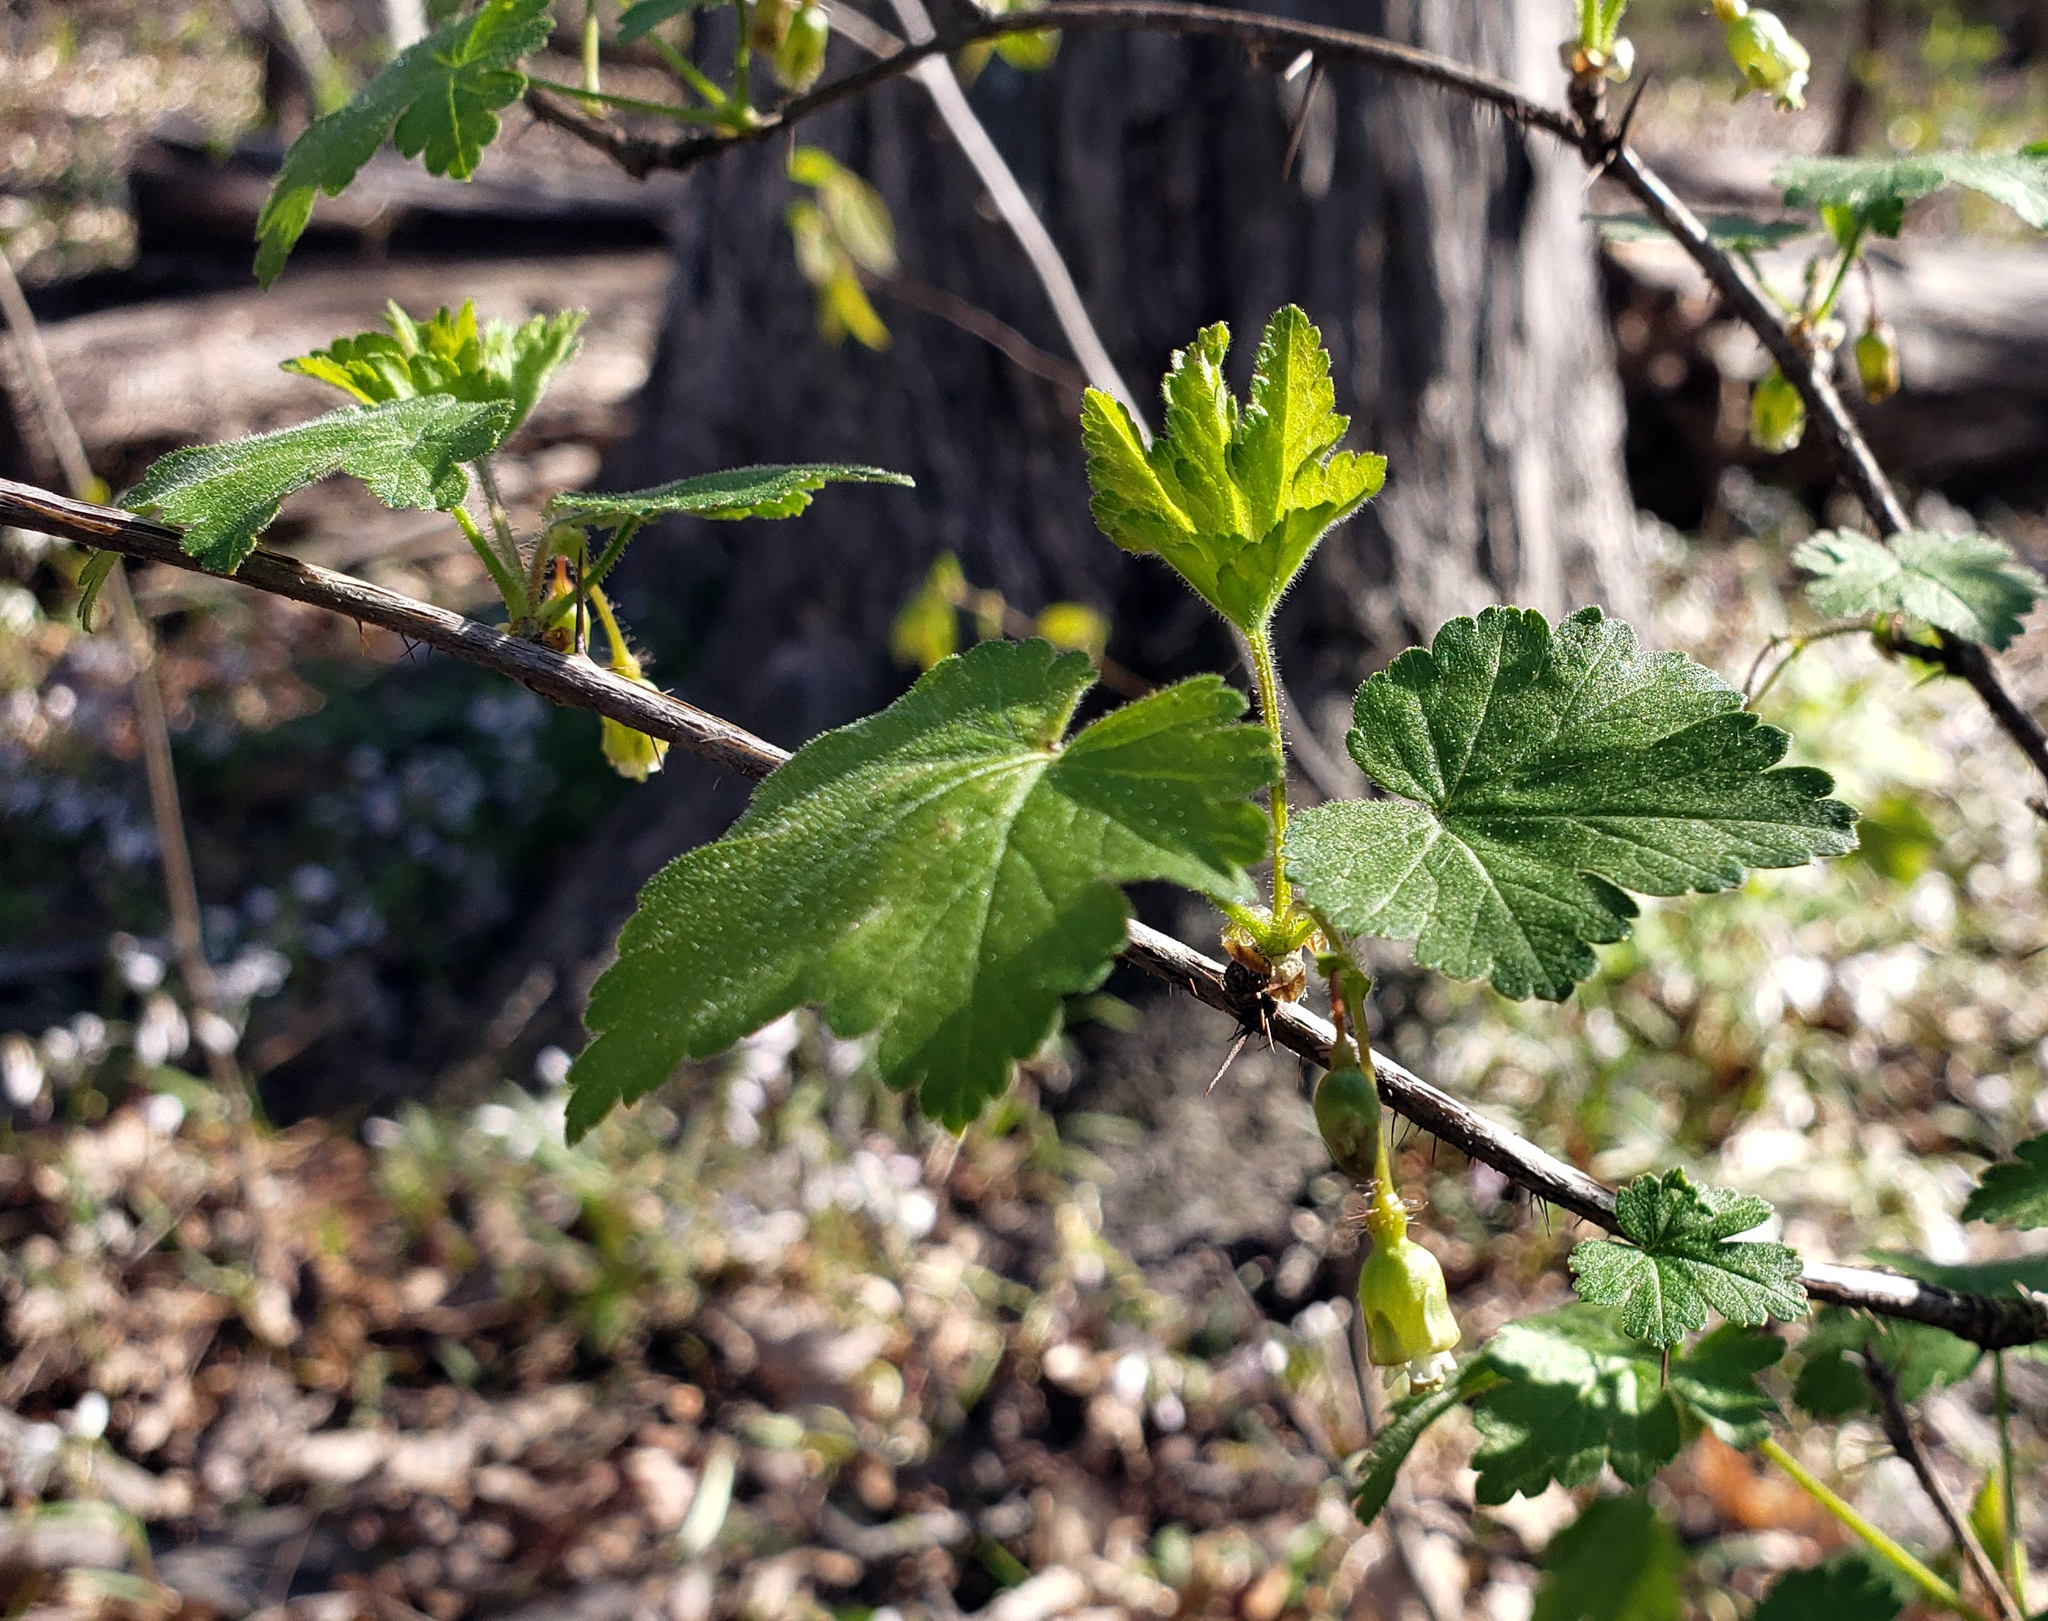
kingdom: Plantae
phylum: Tracheophyta
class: Magnoliopsida
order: Saxifragales
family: Grossulariaceae
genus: Ribes
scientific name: Ribes cynosbati
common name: American gooseberry
